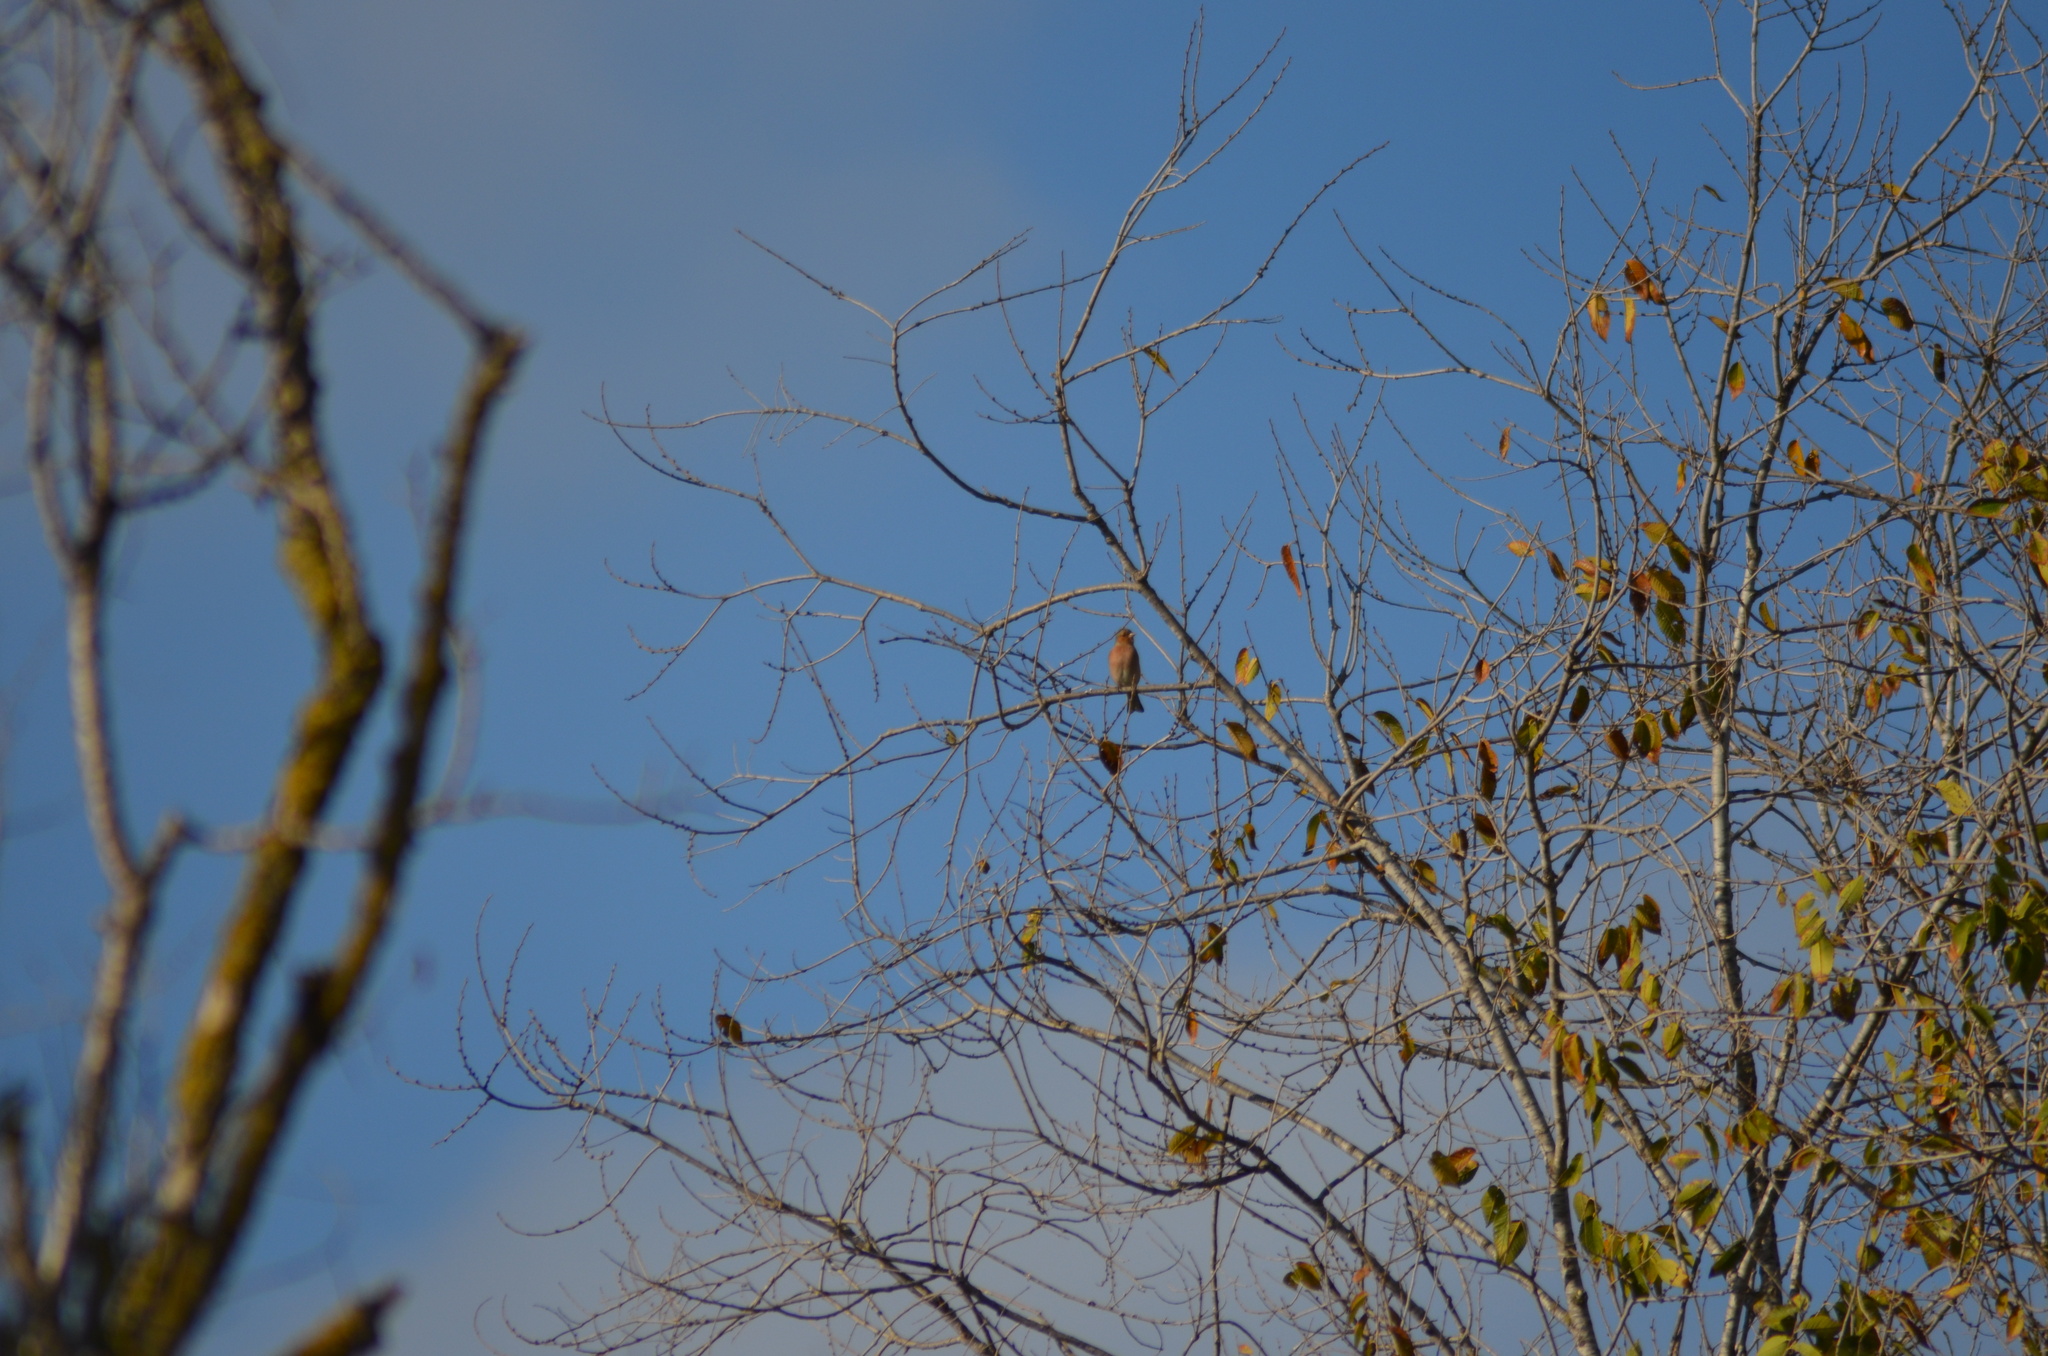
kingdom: Animalia
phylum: Chordata
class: Aves
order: Passeriformes
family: Fringillidae
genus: Fringilla
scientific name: Fringilla coelebs
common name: Common chaffinch
